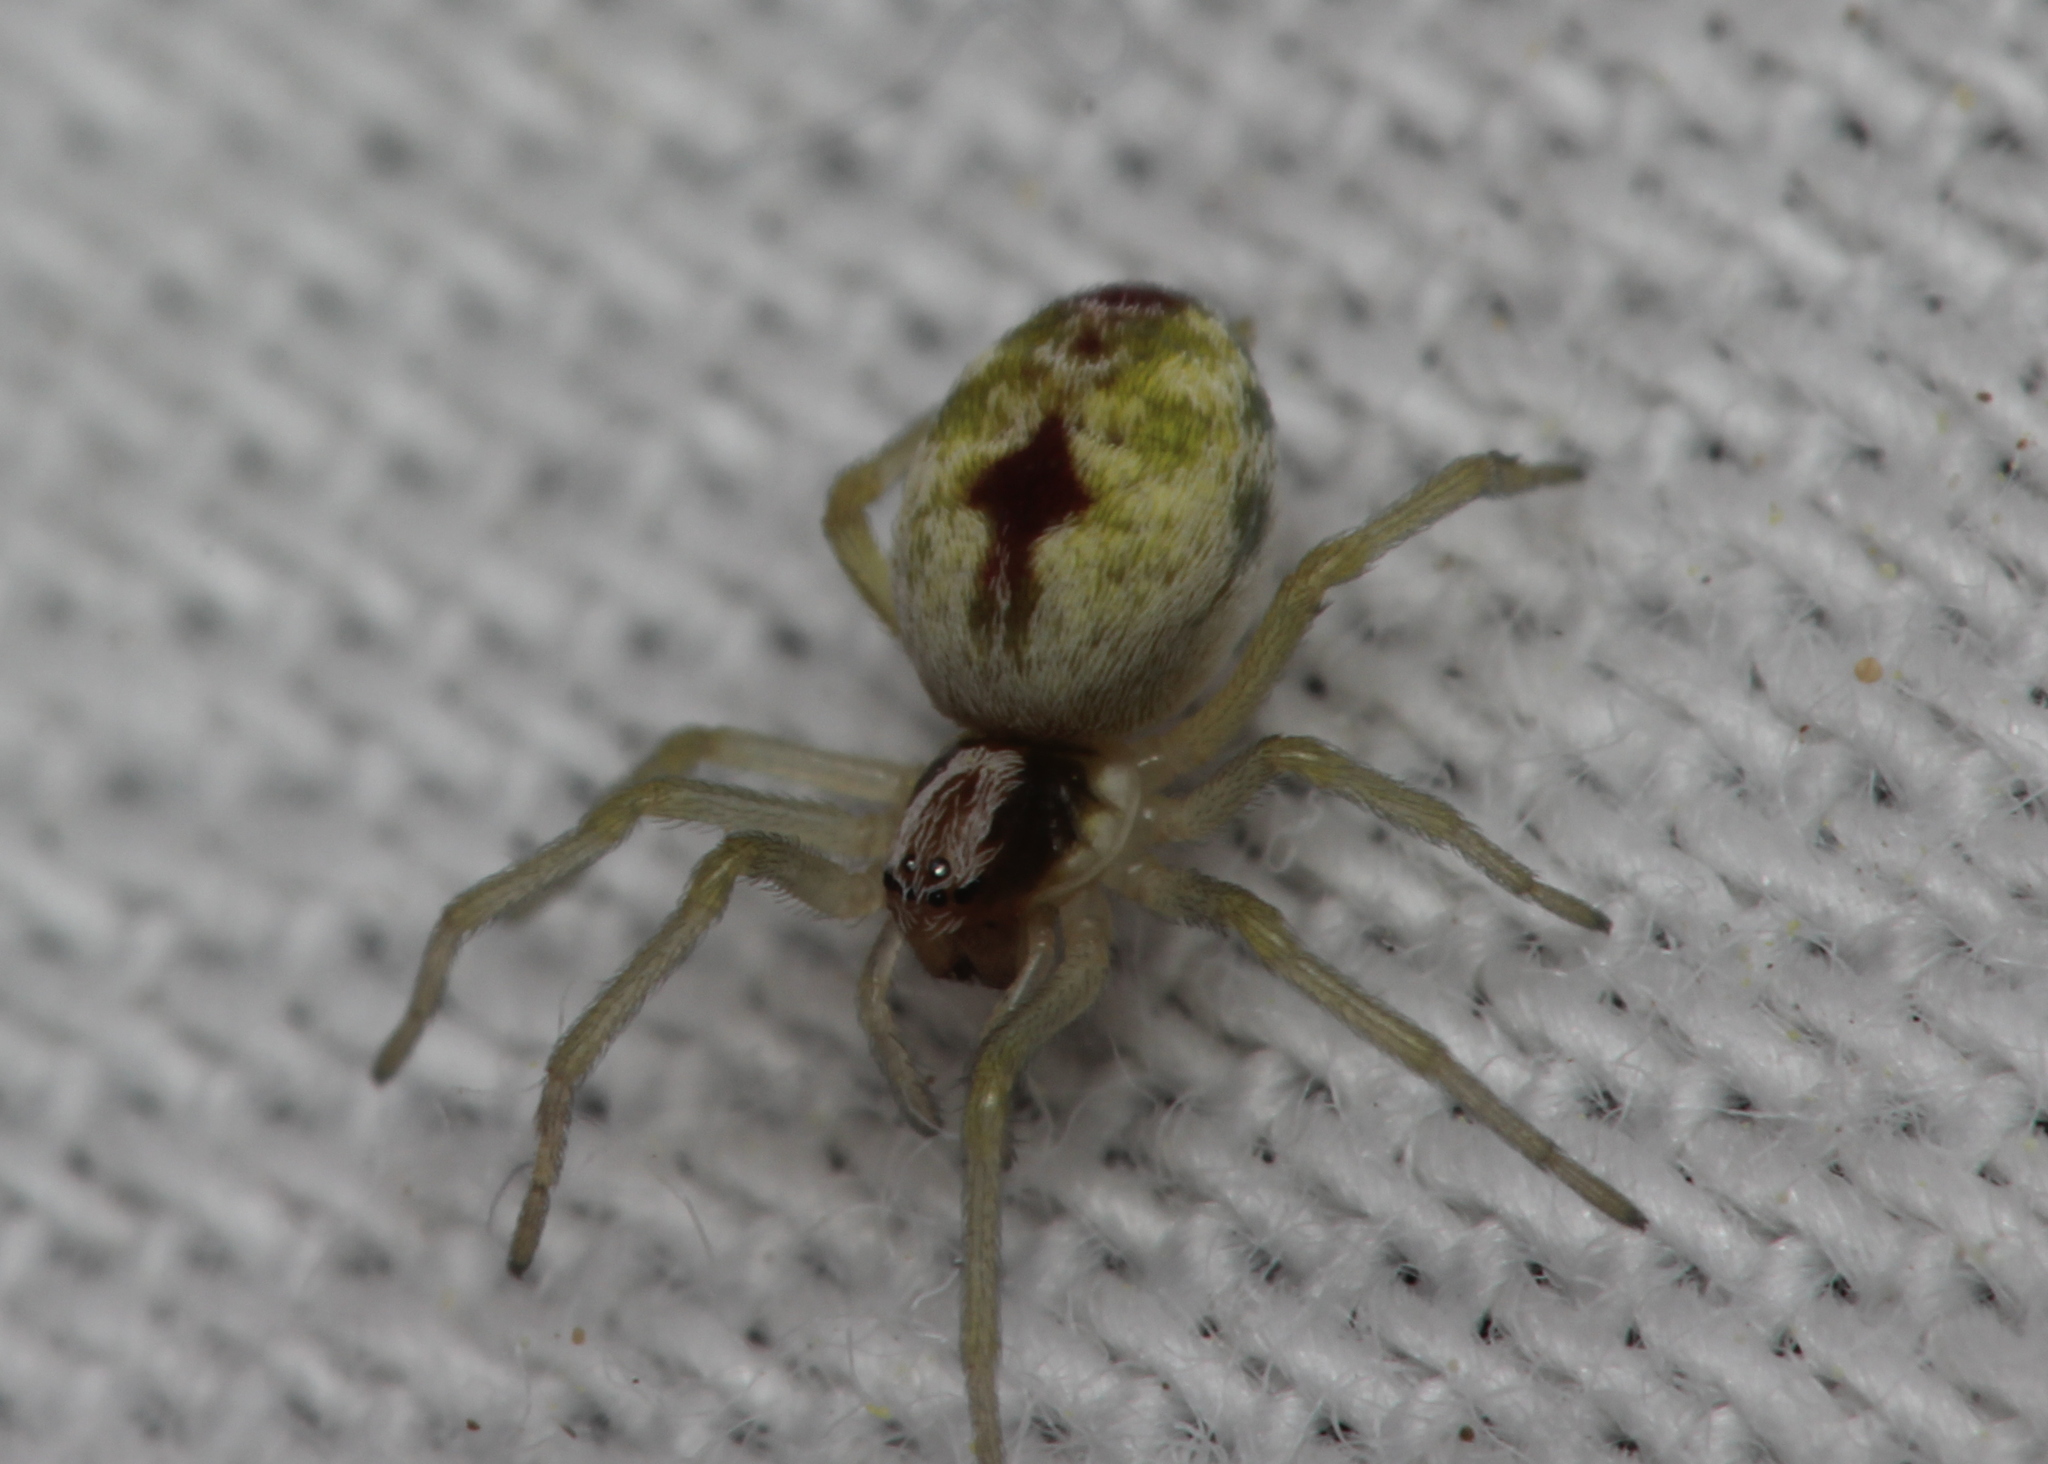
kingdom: Animalia
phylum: Arthropoda
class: Arachnida
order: Araneae
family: Dictynidae
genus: Nigma
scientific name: Nigma puella
